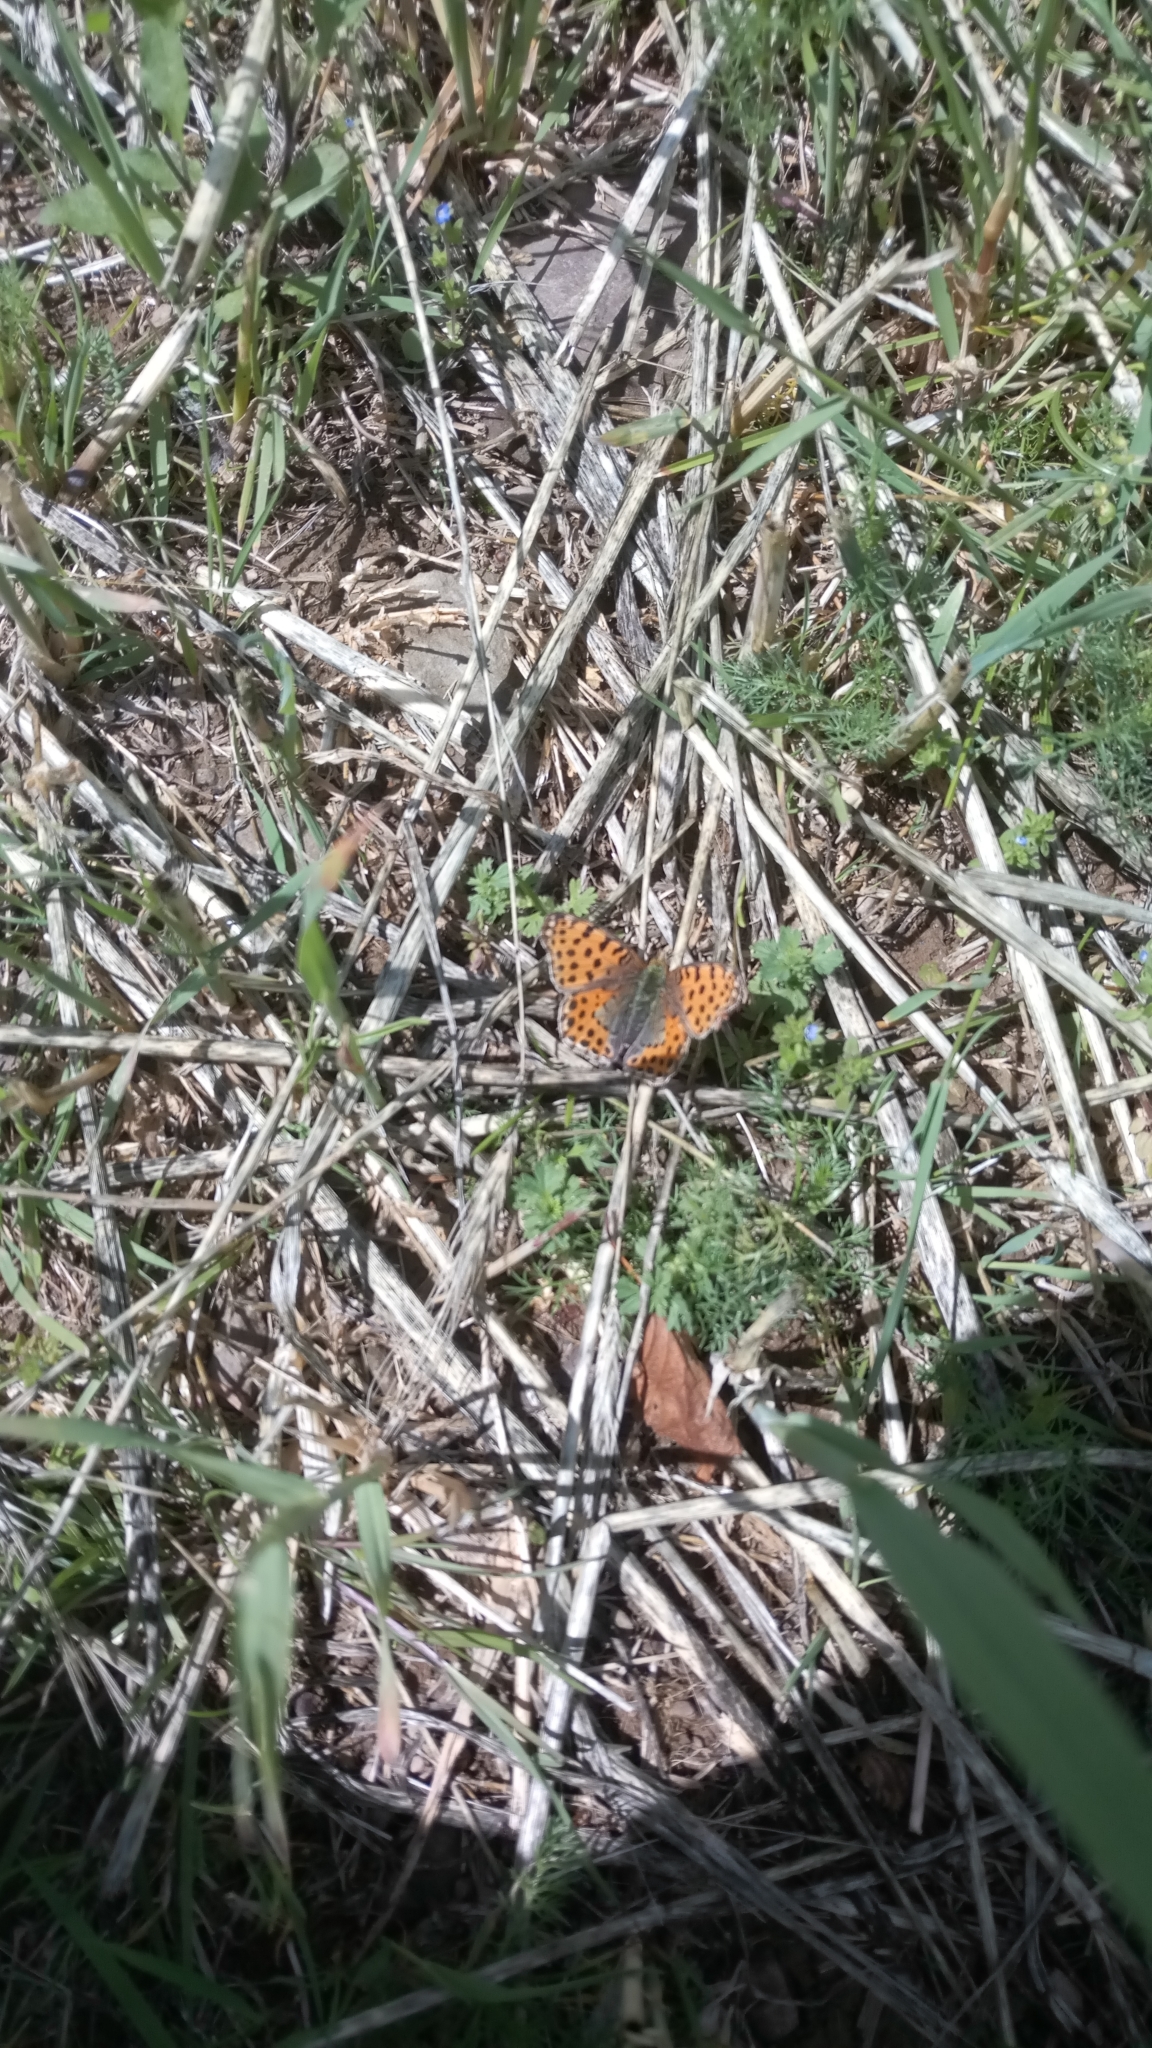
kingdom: Animalia
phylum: Arthropoda
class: Insecta
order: Lepidoptera
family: Nymphalidae
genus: Issoria
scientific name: Issoria lathonia
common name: Queen of spain fritillary
